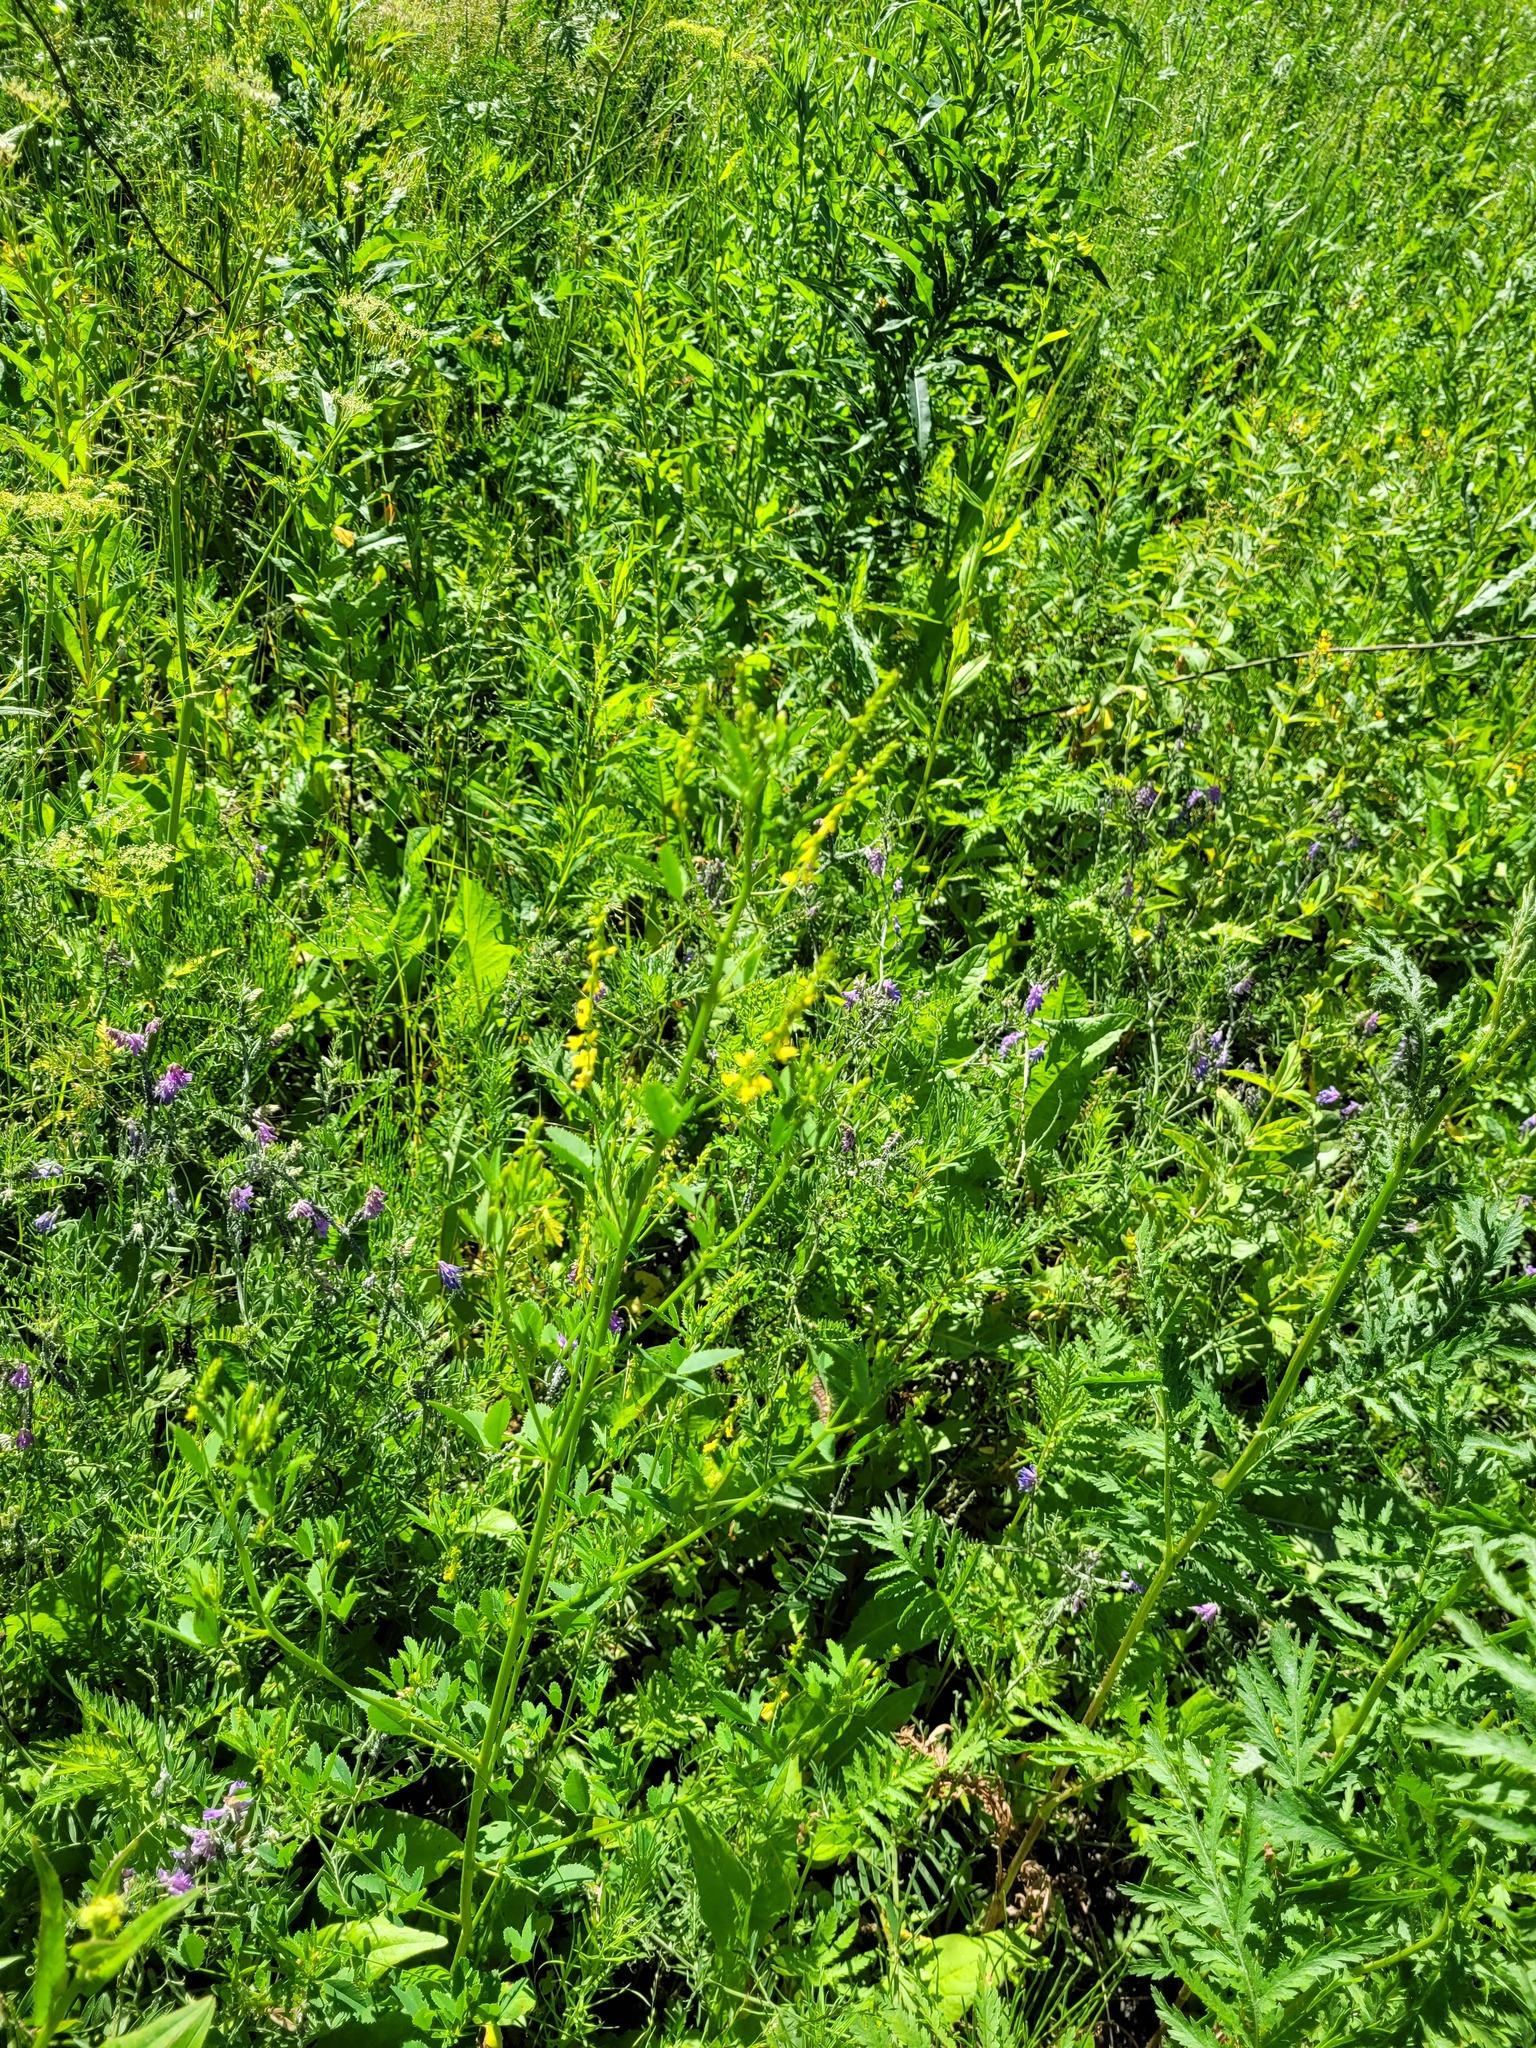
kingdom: Plantae
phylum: Tracheophyta
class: Magnoliopsida
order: Fabales
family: Fabaceae
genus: Melilotus
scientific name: Melilotus officinalis
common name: Sweetclover
